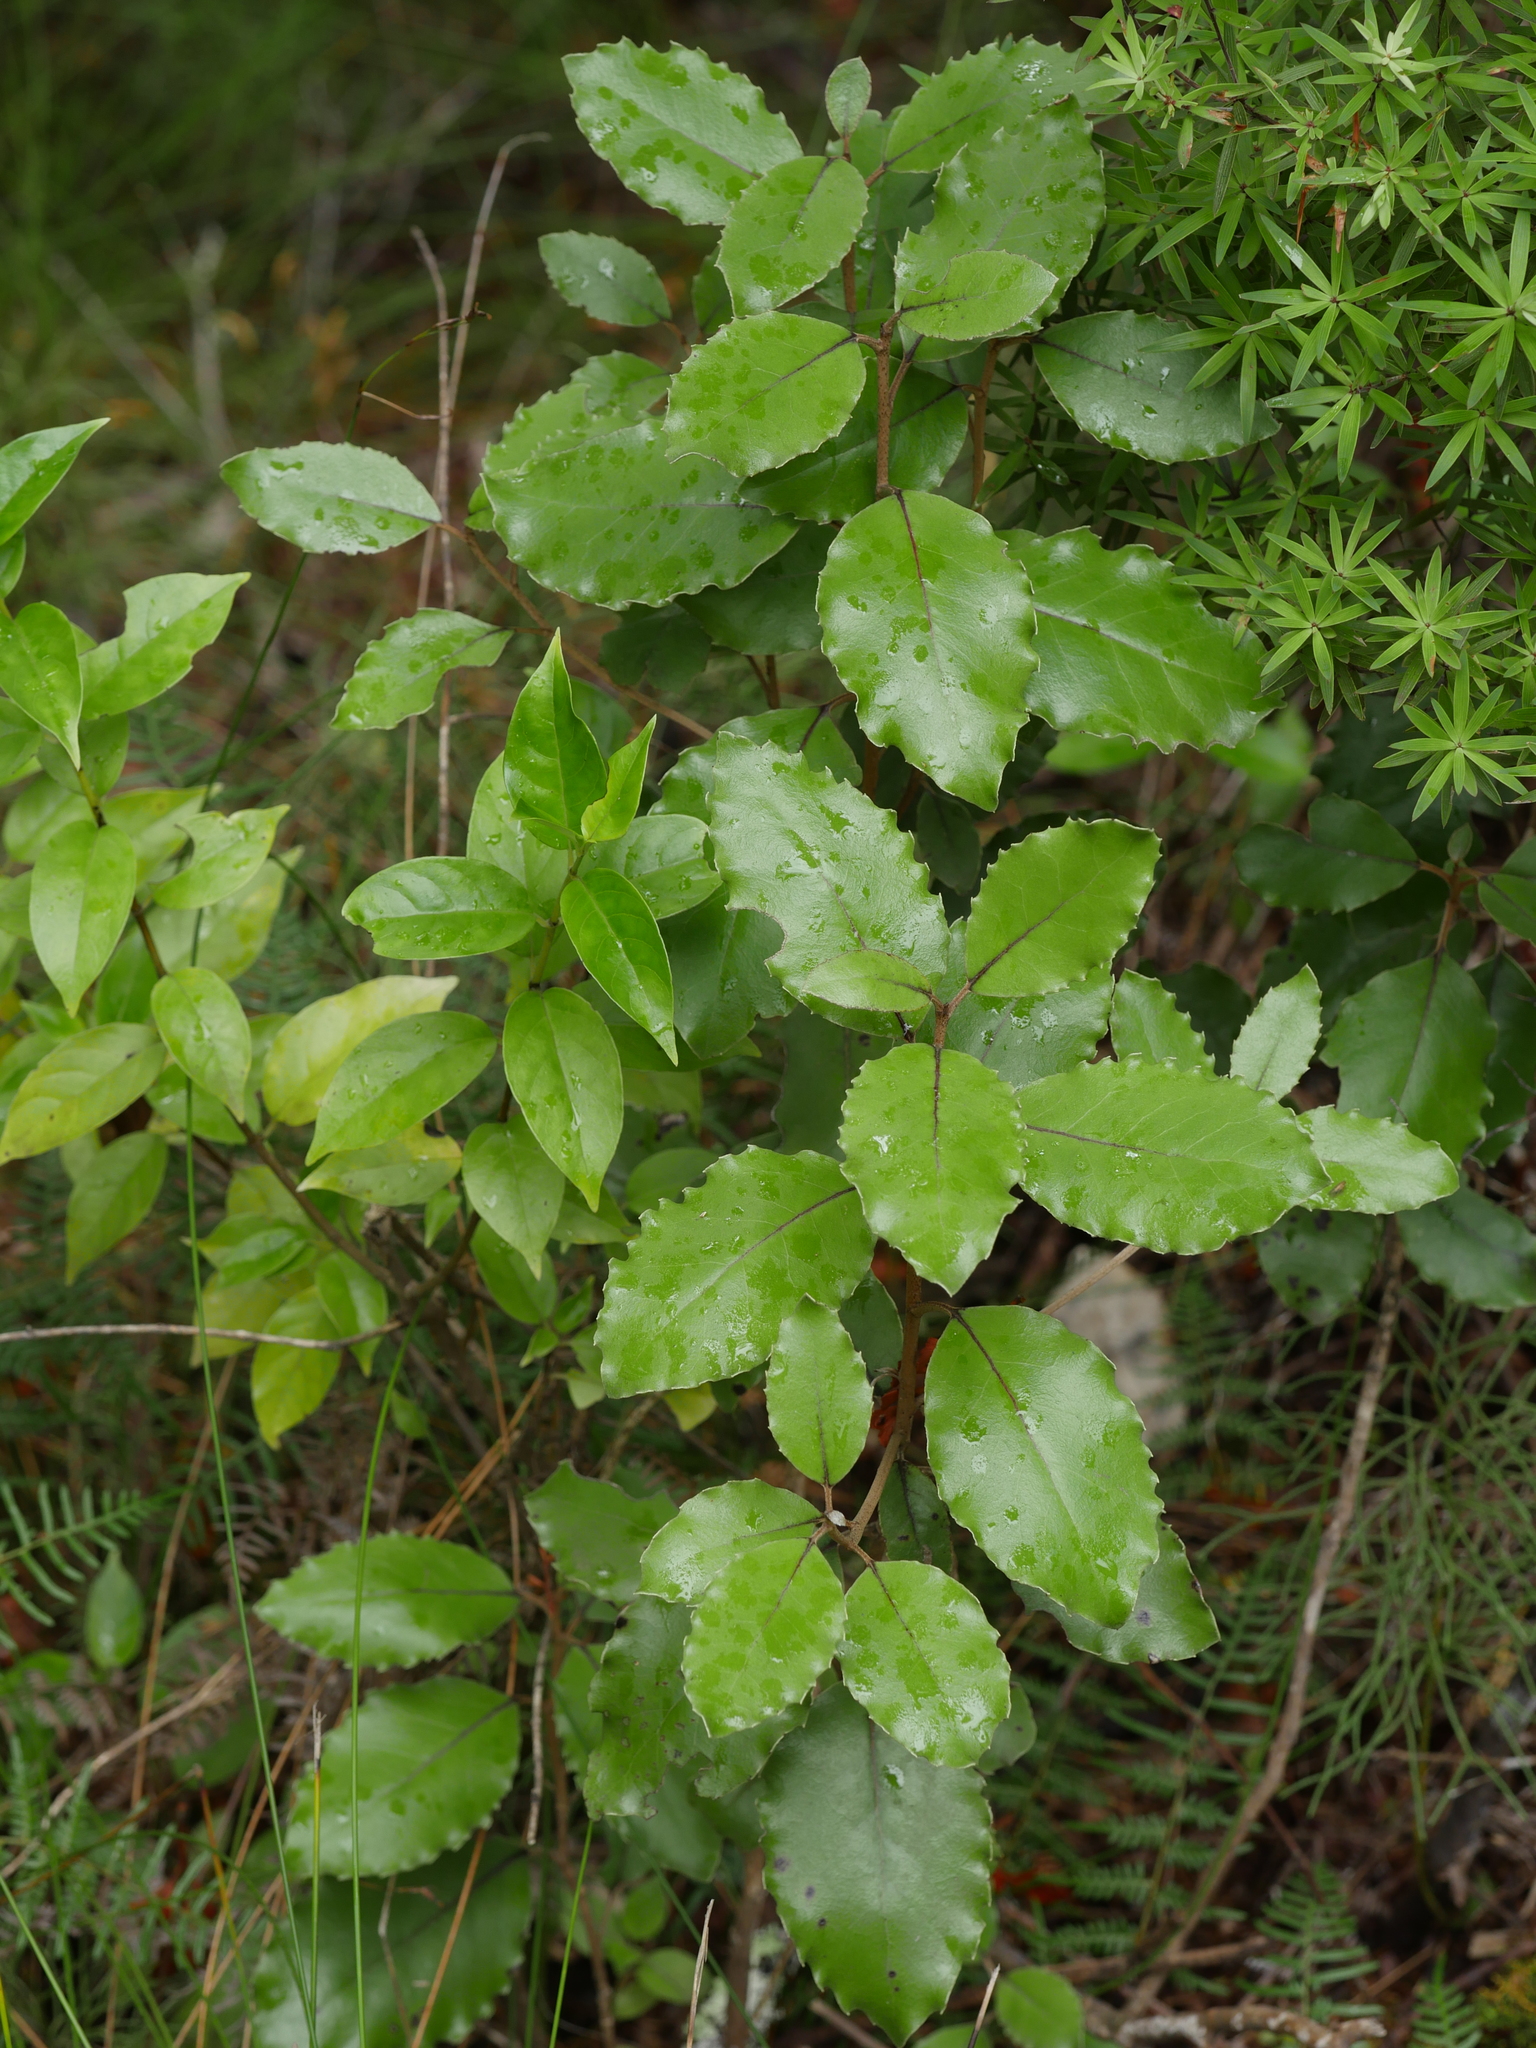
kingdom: Plantae
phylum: Tracheophyta
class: Magnoliopsida
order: Asterales
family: Asteraceae
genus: Olearia
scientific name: Olearia furfuracea
